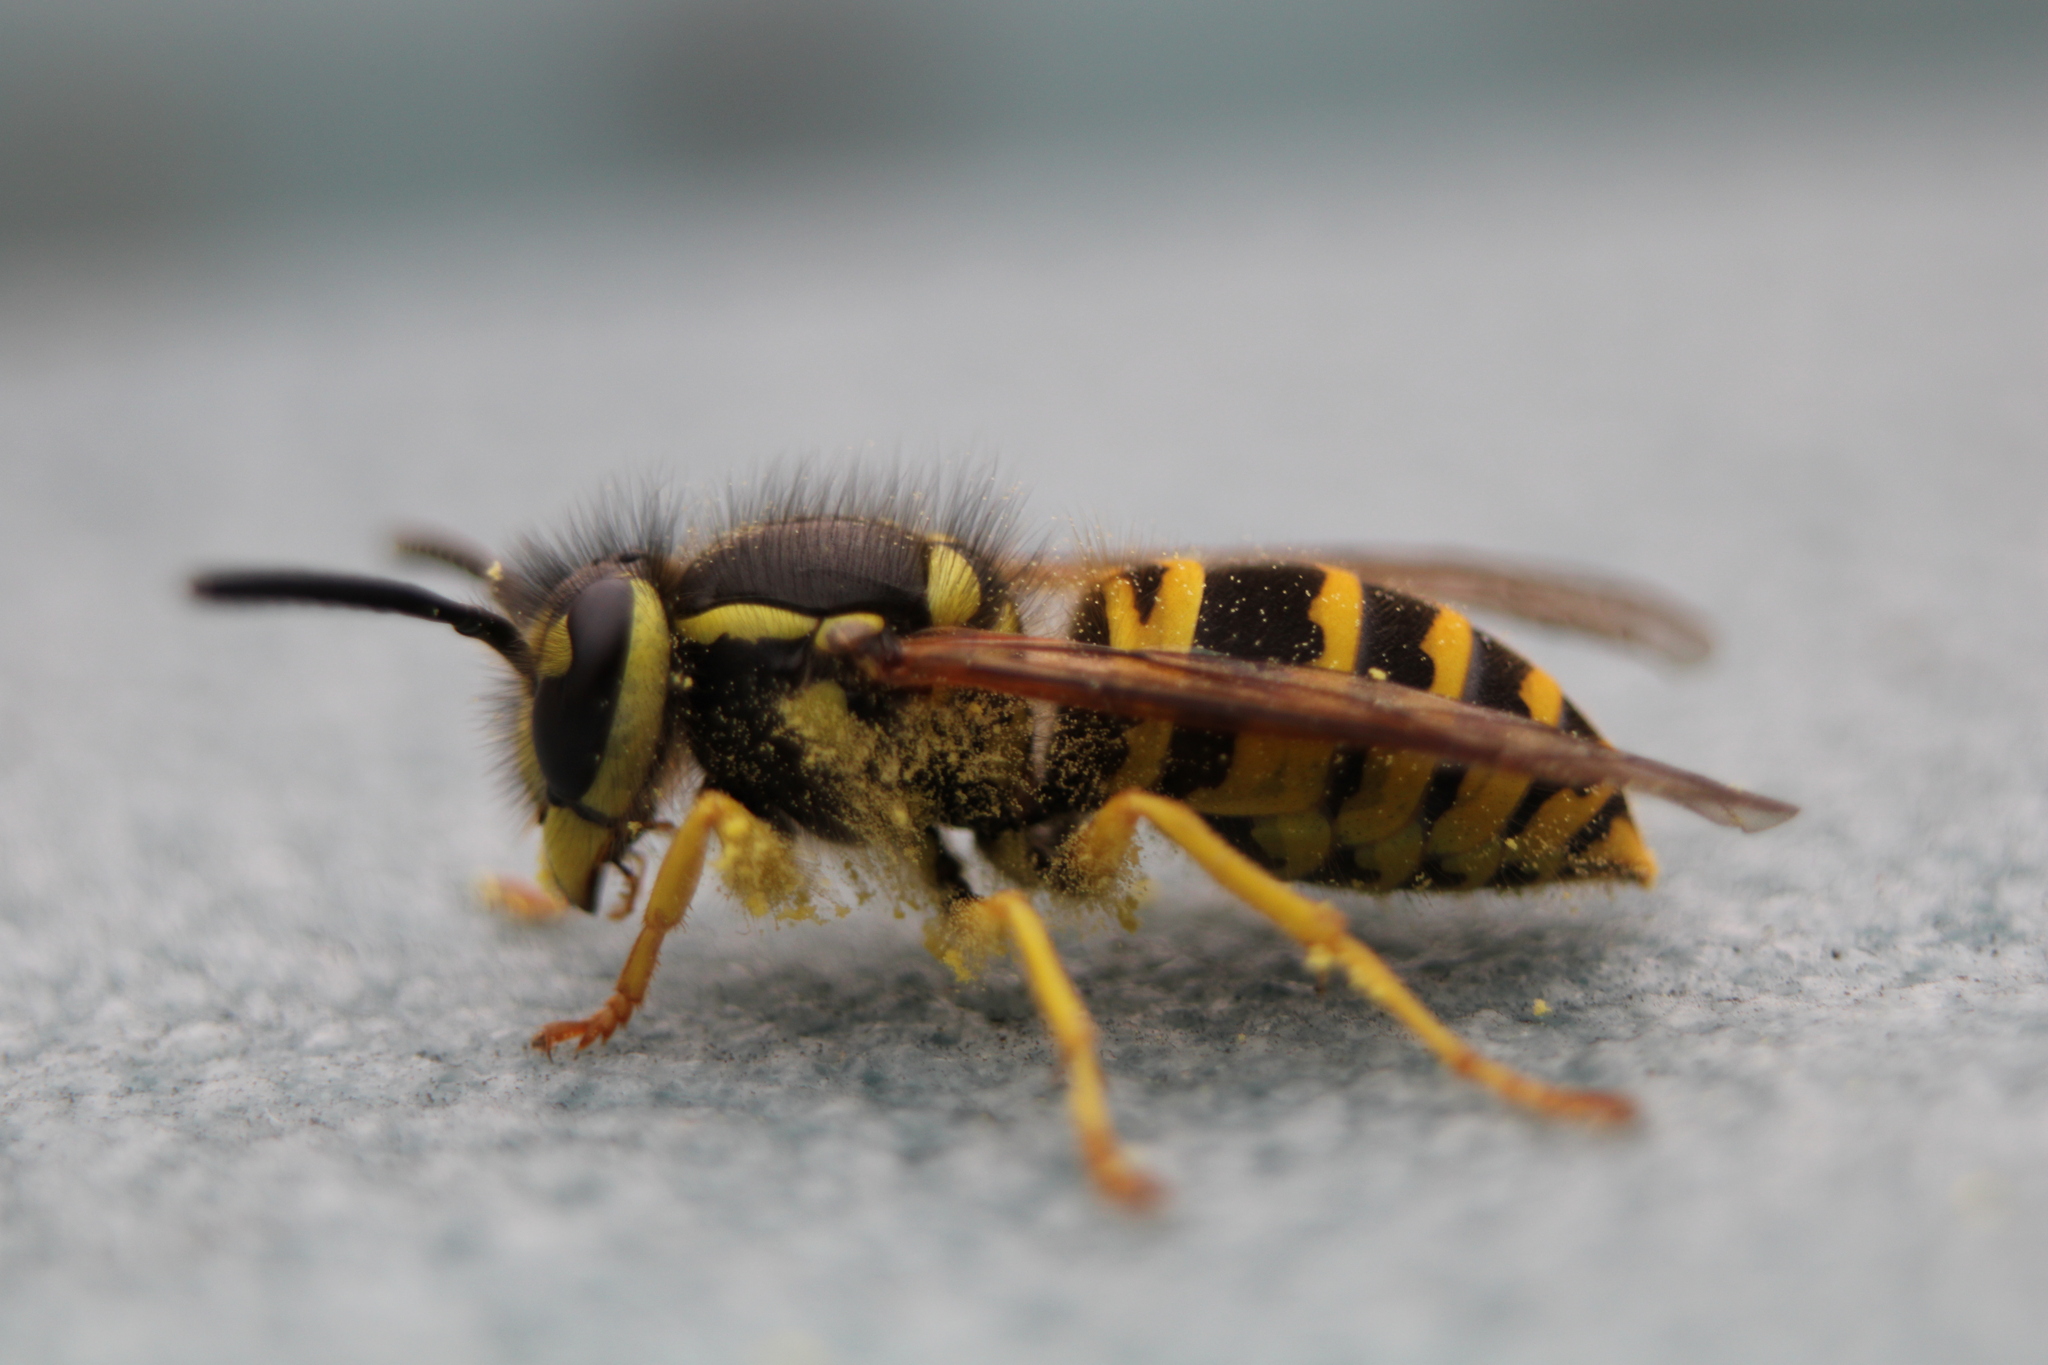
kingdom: Animalia
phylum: Arthropoda
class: Insecta
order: Hymenoptera
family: Vespidae
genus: Vespula
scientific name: Vespula maculifrons
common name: Eastern yellowjacket
